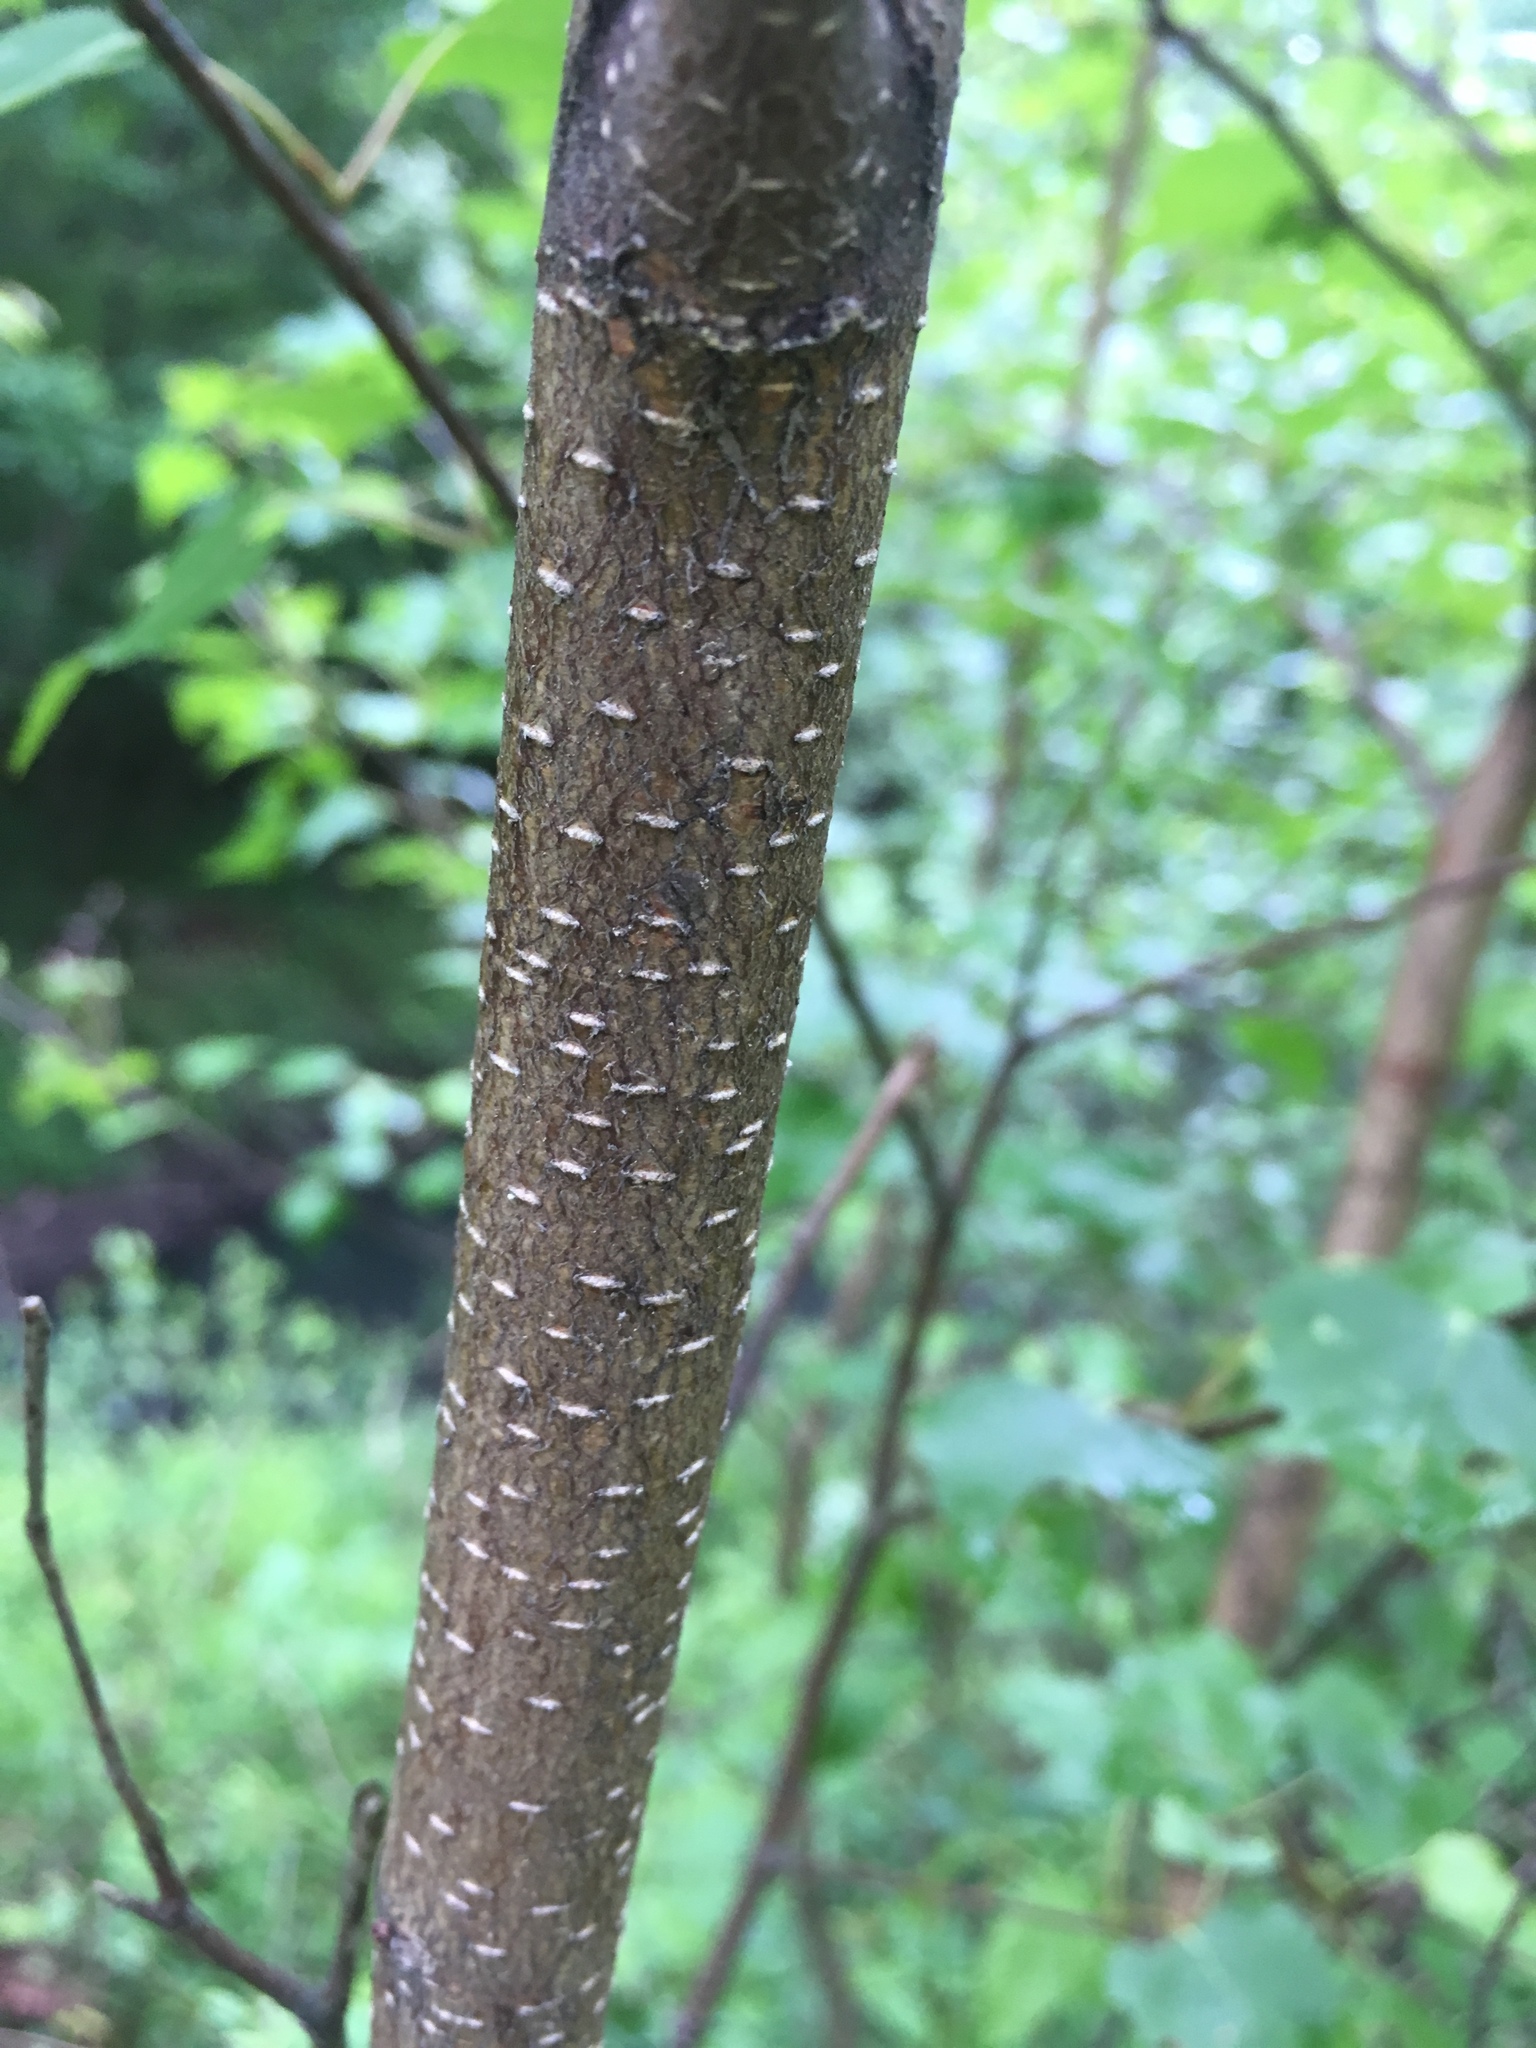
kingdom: Plantae
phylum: Tracheophyta
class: Magnoliopsida
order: Fagales
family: Betulaceae
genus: Betula
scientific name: Betula populifolia
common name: Fire birch
